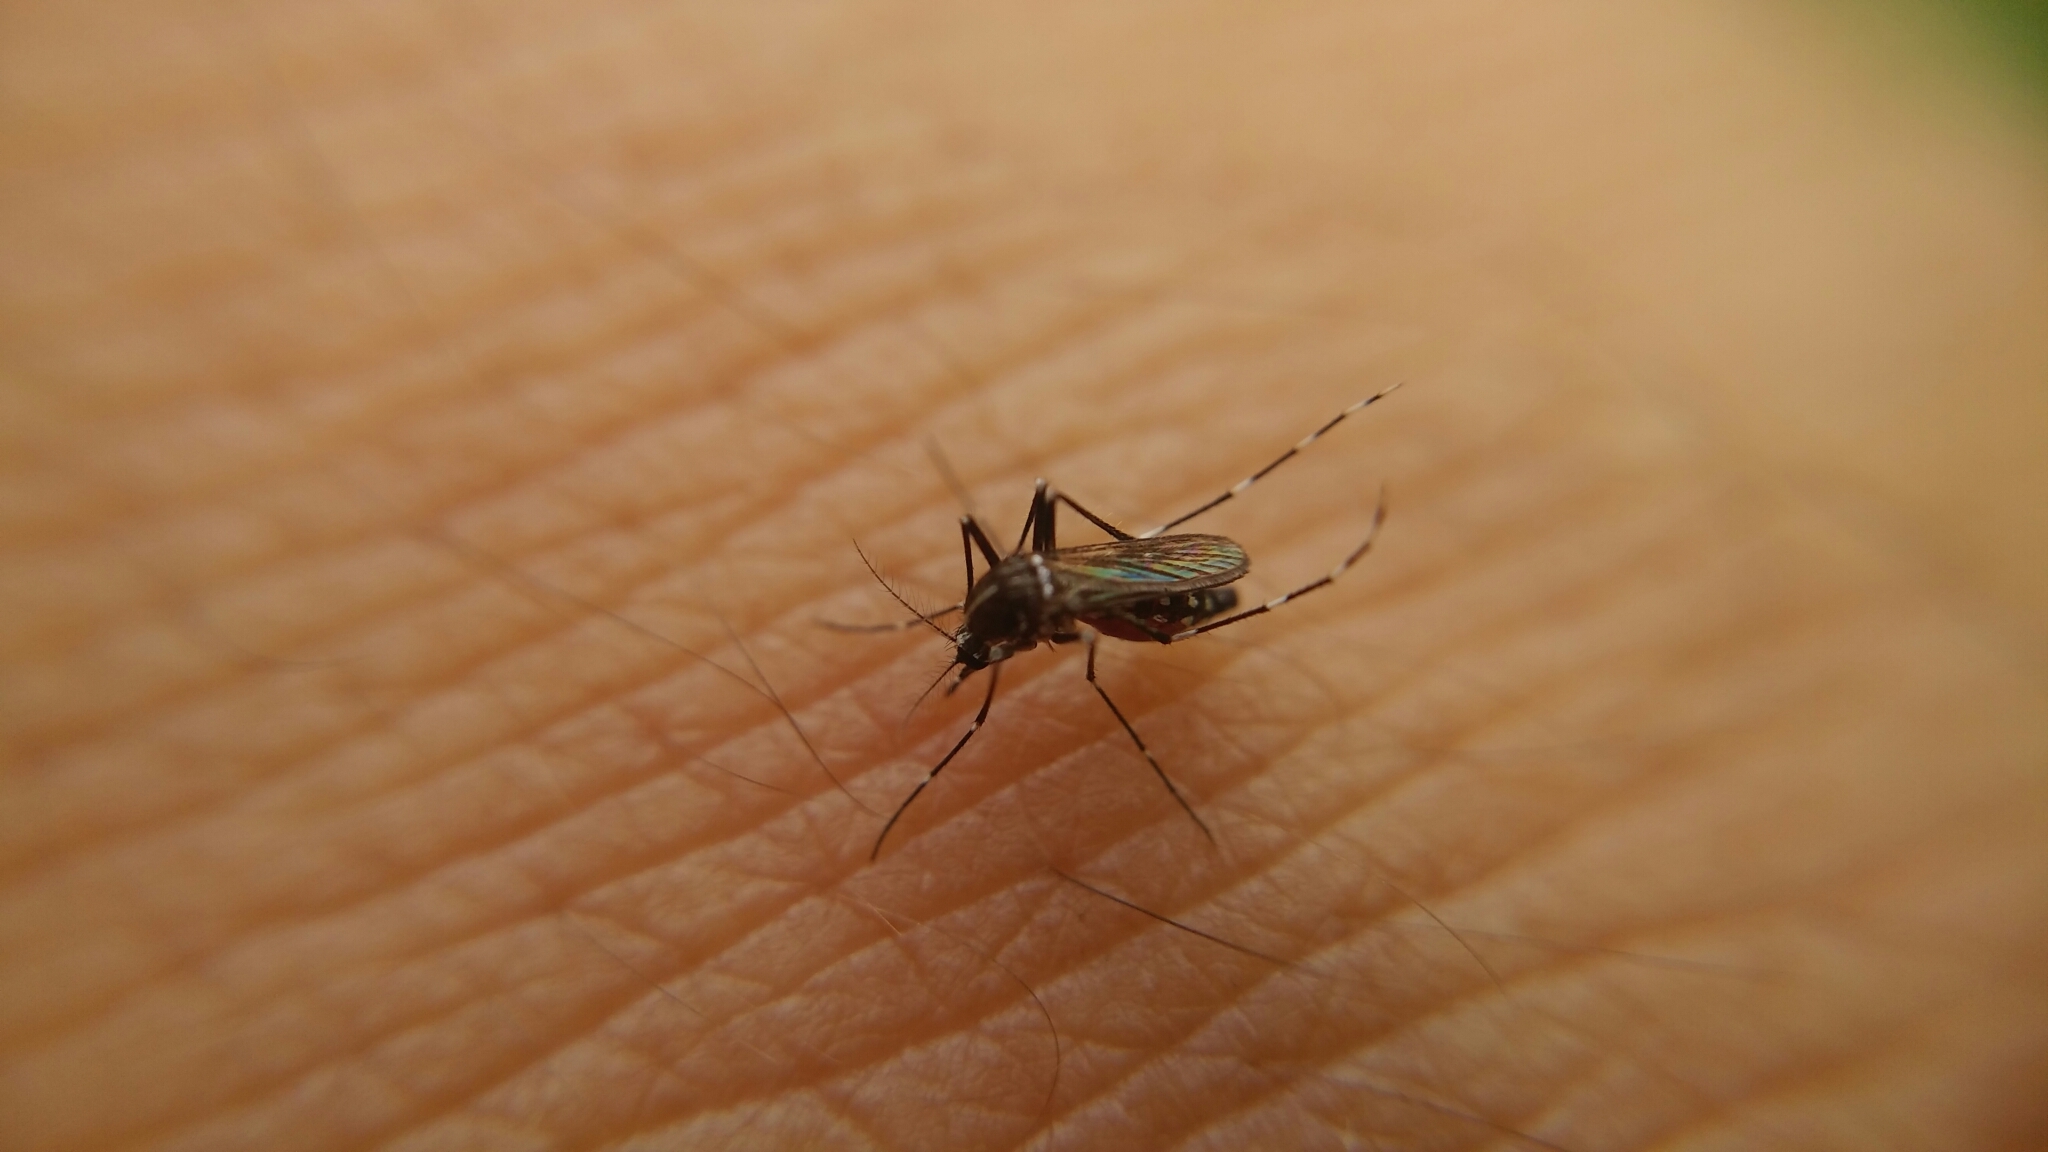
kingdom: Animalia
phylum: Arthropoda
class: Insecta
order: Diptera
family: Culicidae
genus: Aedes
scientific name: Aedes albopictus
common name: Tiger mosquito
